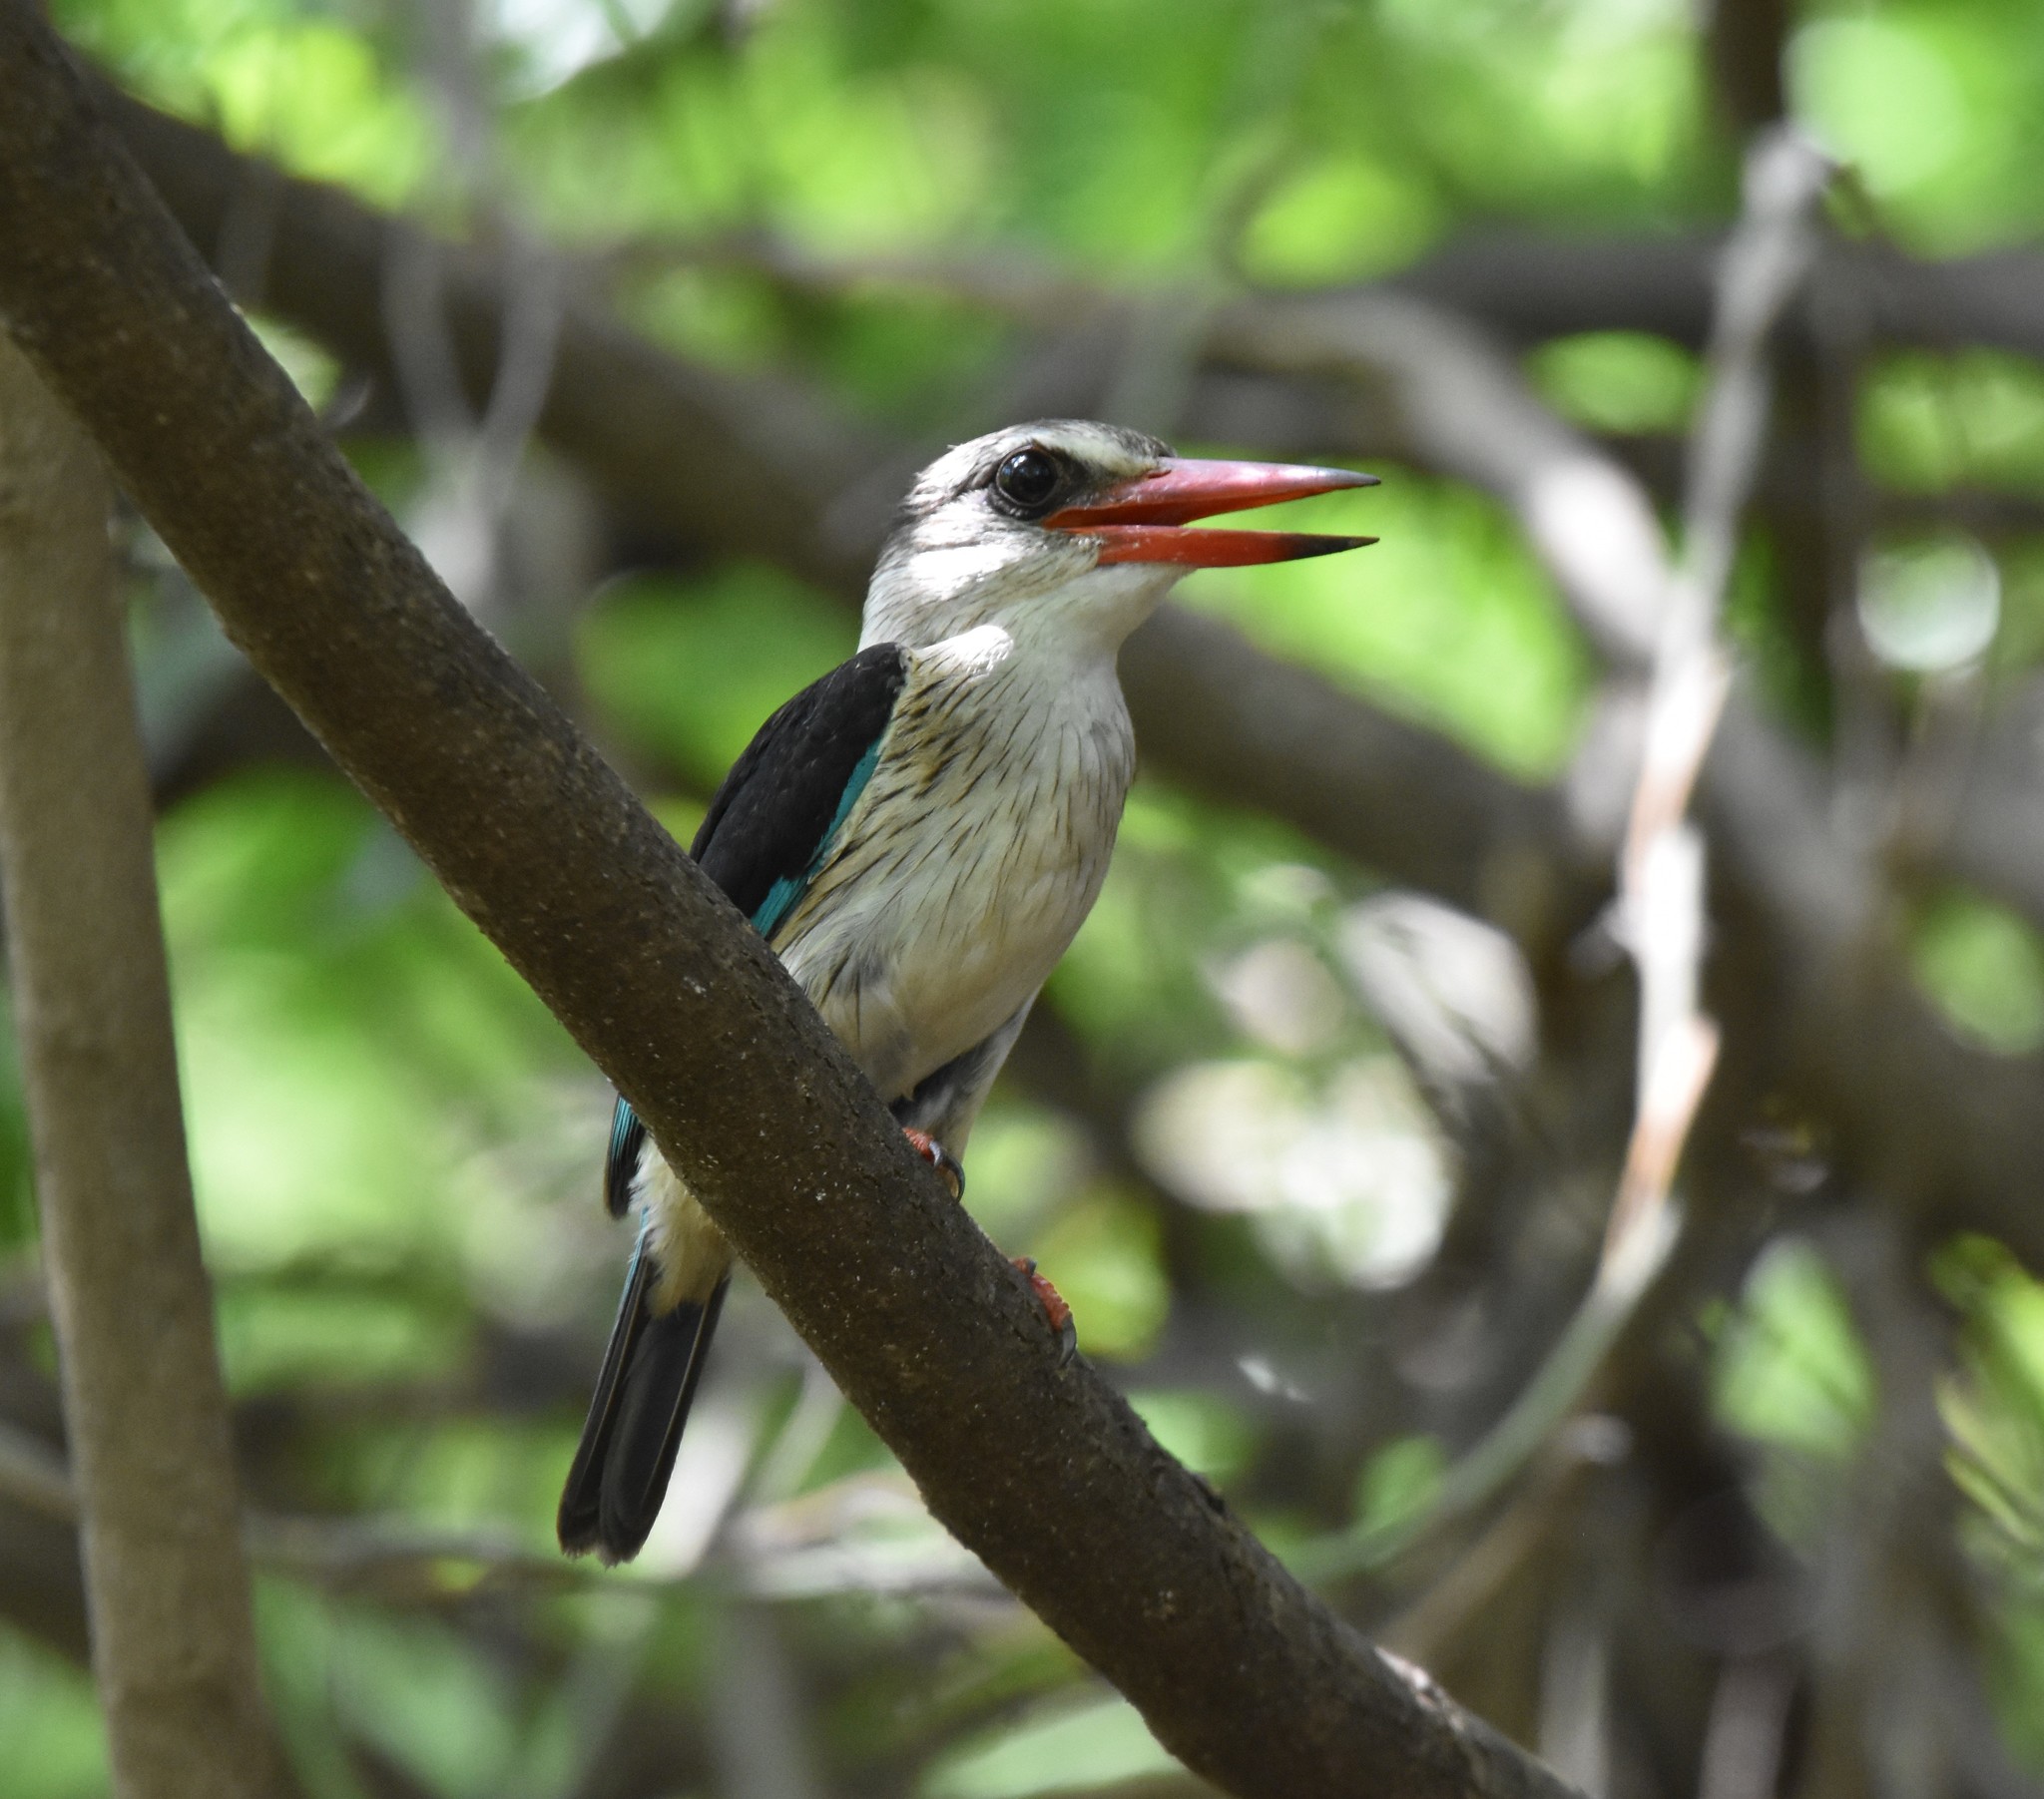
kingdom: Animalia
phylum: Chordata
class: Aves
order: Coraciiformes
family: Alcedinidae
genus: Halcyon
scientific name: Halcyon albiventris
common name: Brown-hooded kingfisher
